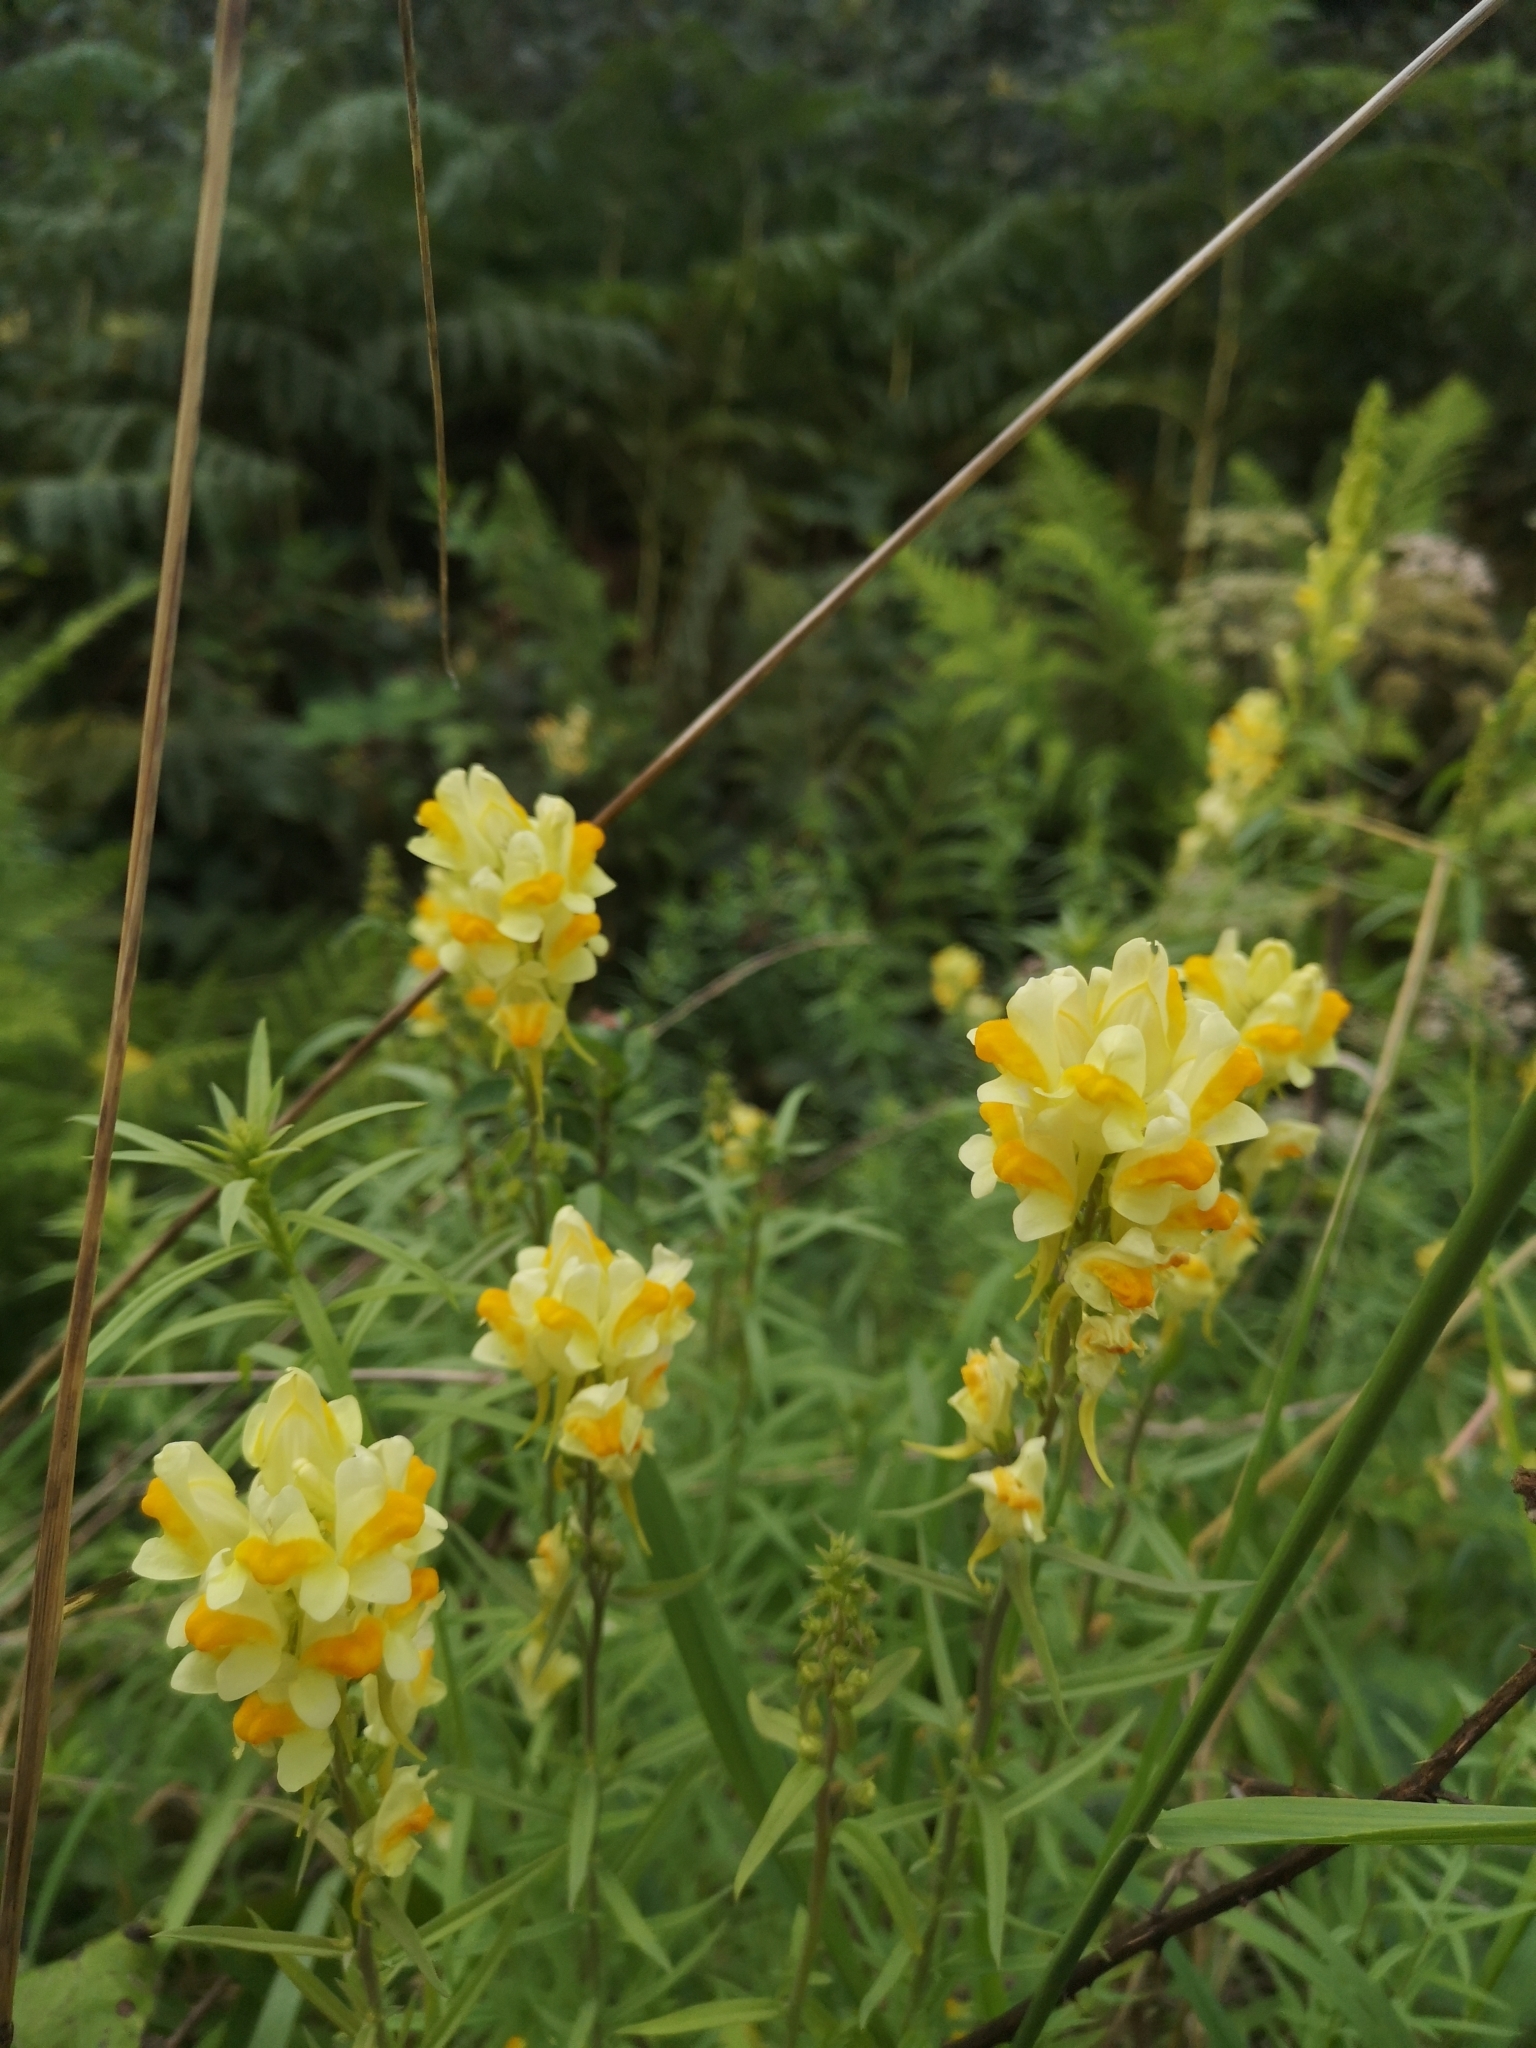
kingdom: Plantae
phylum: Tracheophyta
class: Magnoliopsida
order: Lamiales
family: Plantaginaceae
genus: Linaria
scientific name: Linaria vulgaris
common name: Butter and eggs
